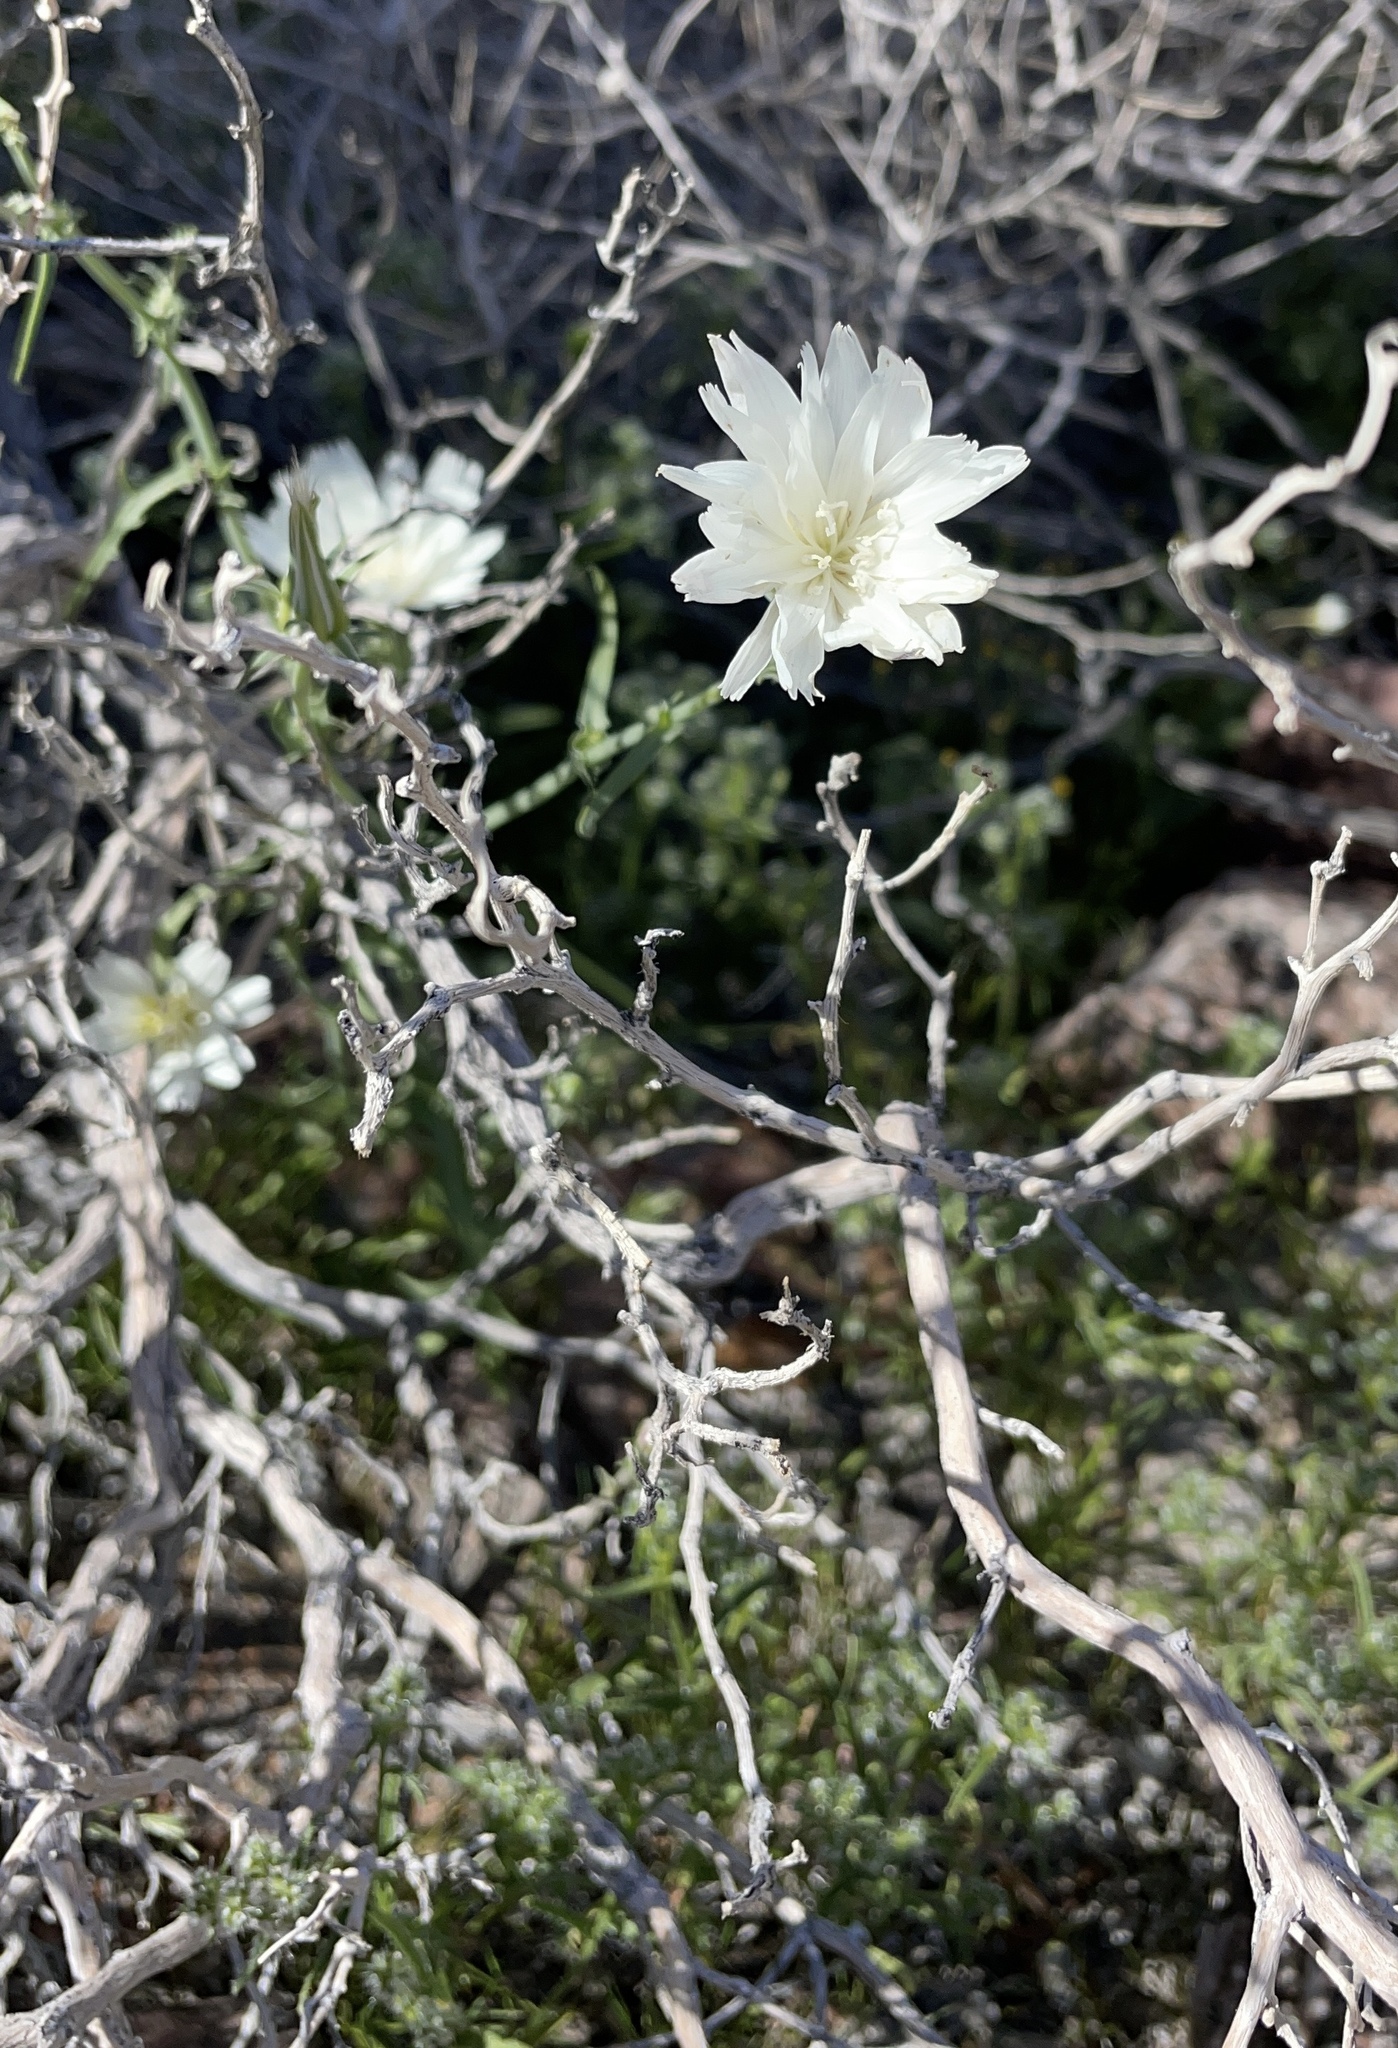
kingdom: Plantae
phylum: Tracheophyta
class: Magnoliopsida
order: Asterales
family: Asteraceae
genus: Rafinesquia
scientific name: Rafinesquia neomexicana
